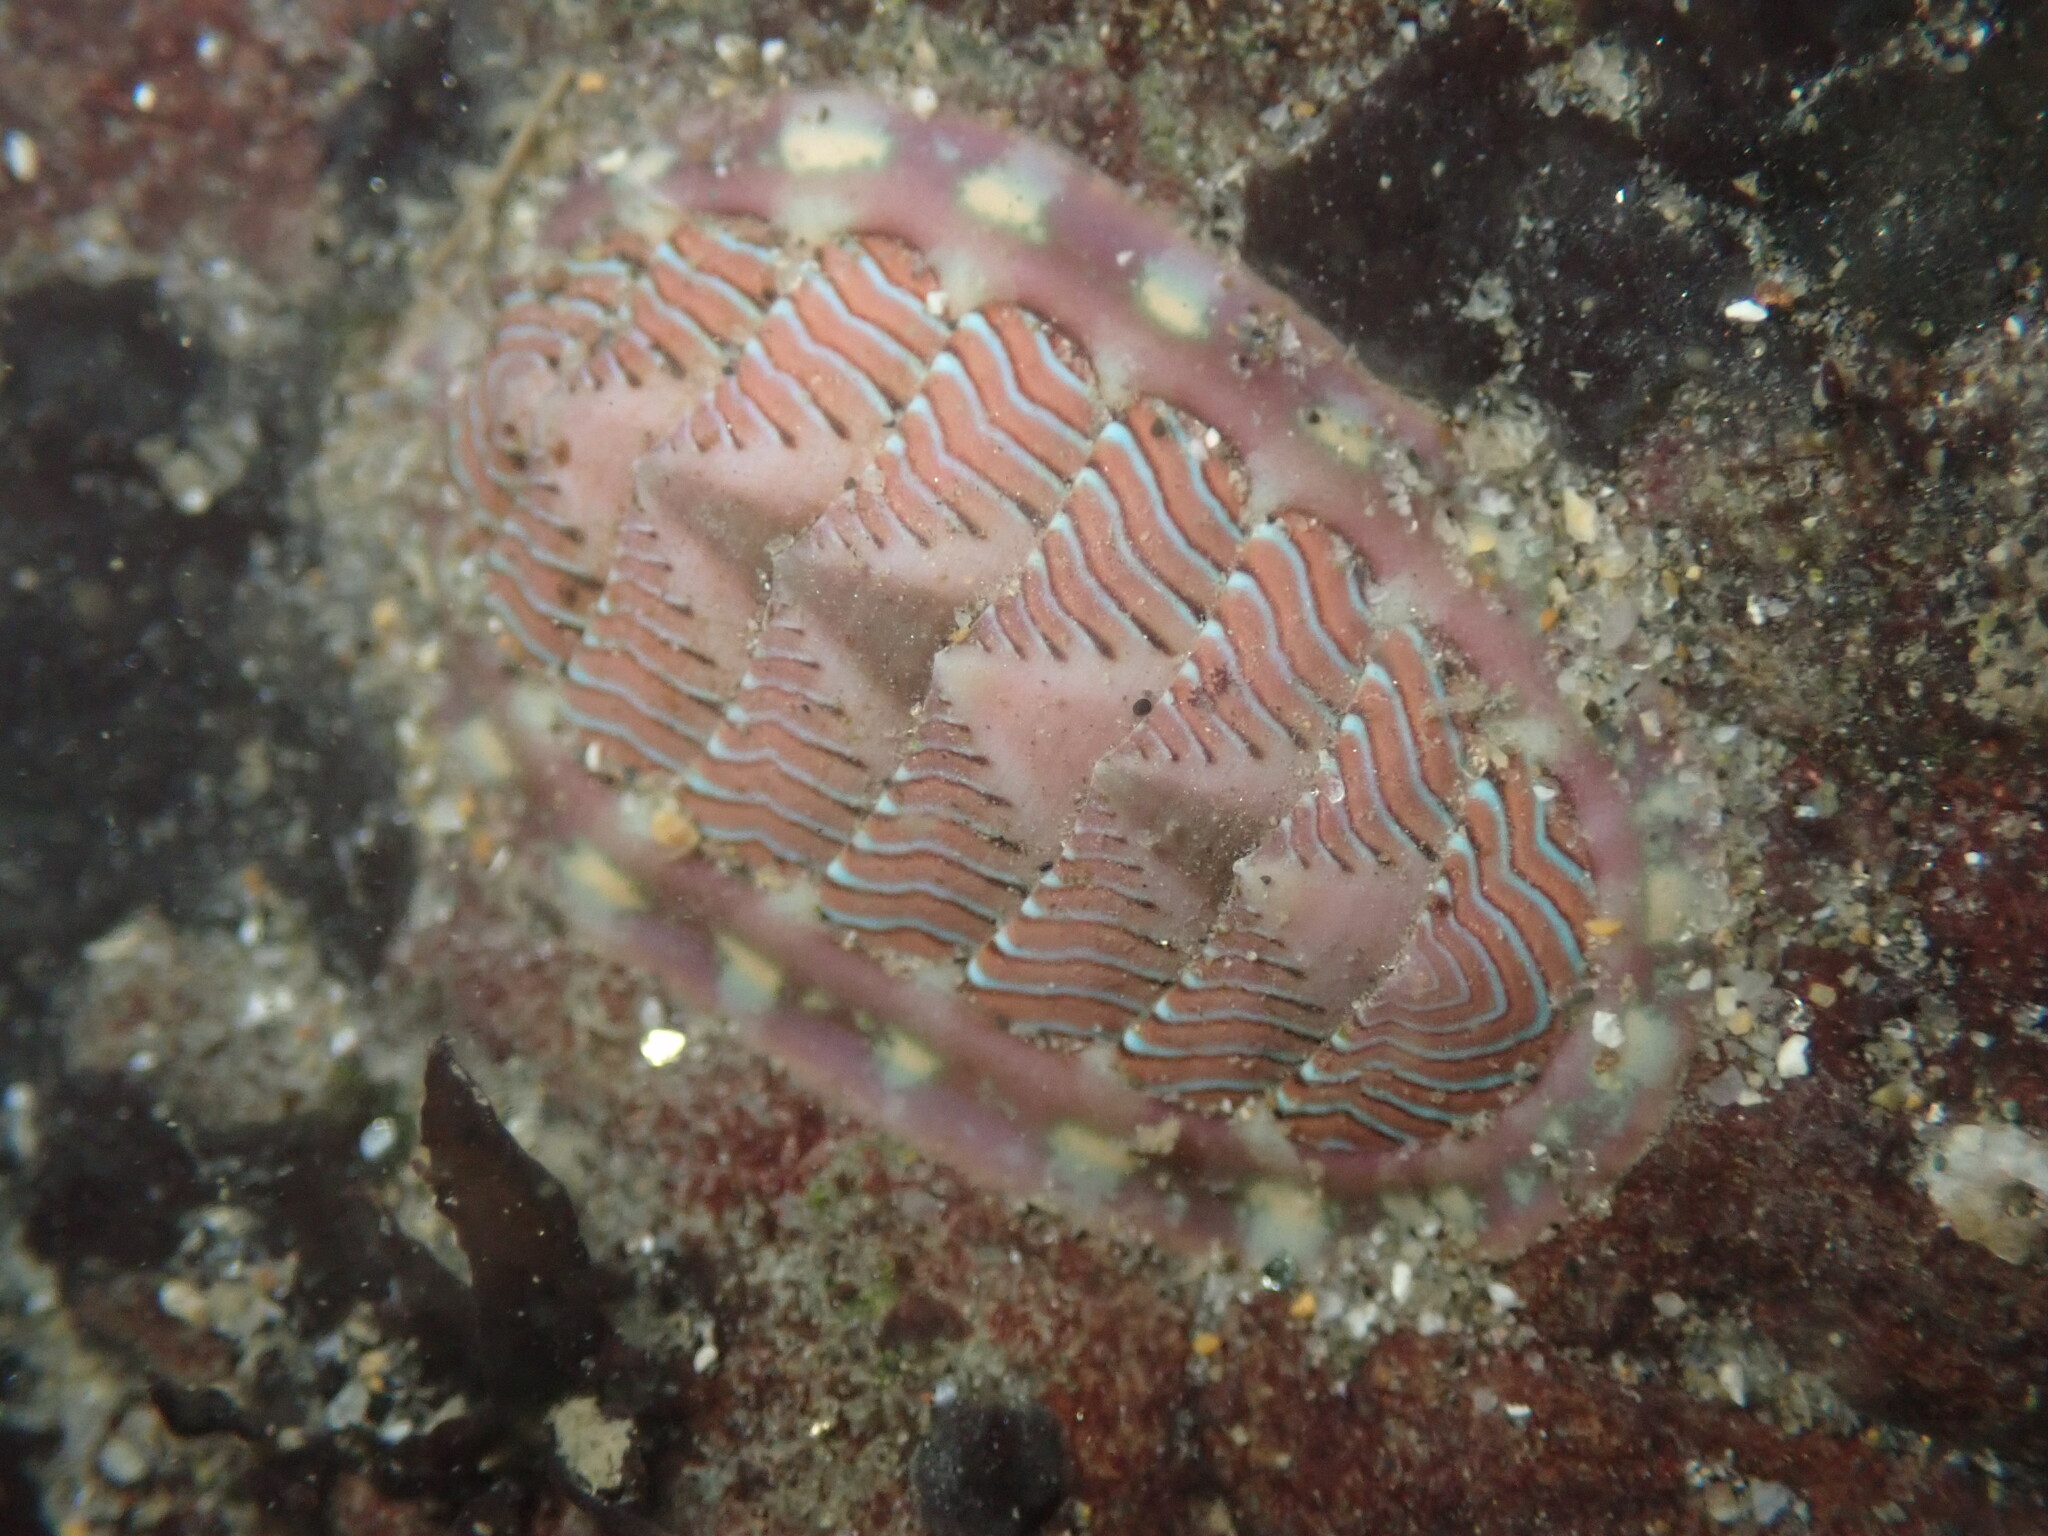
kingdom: Animalia
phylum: Mollusca
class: Polyplacophora
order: Chitonida
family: Tonicellidae
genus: Tonicella
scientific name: Tonicella lineata
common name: Lined chiton
